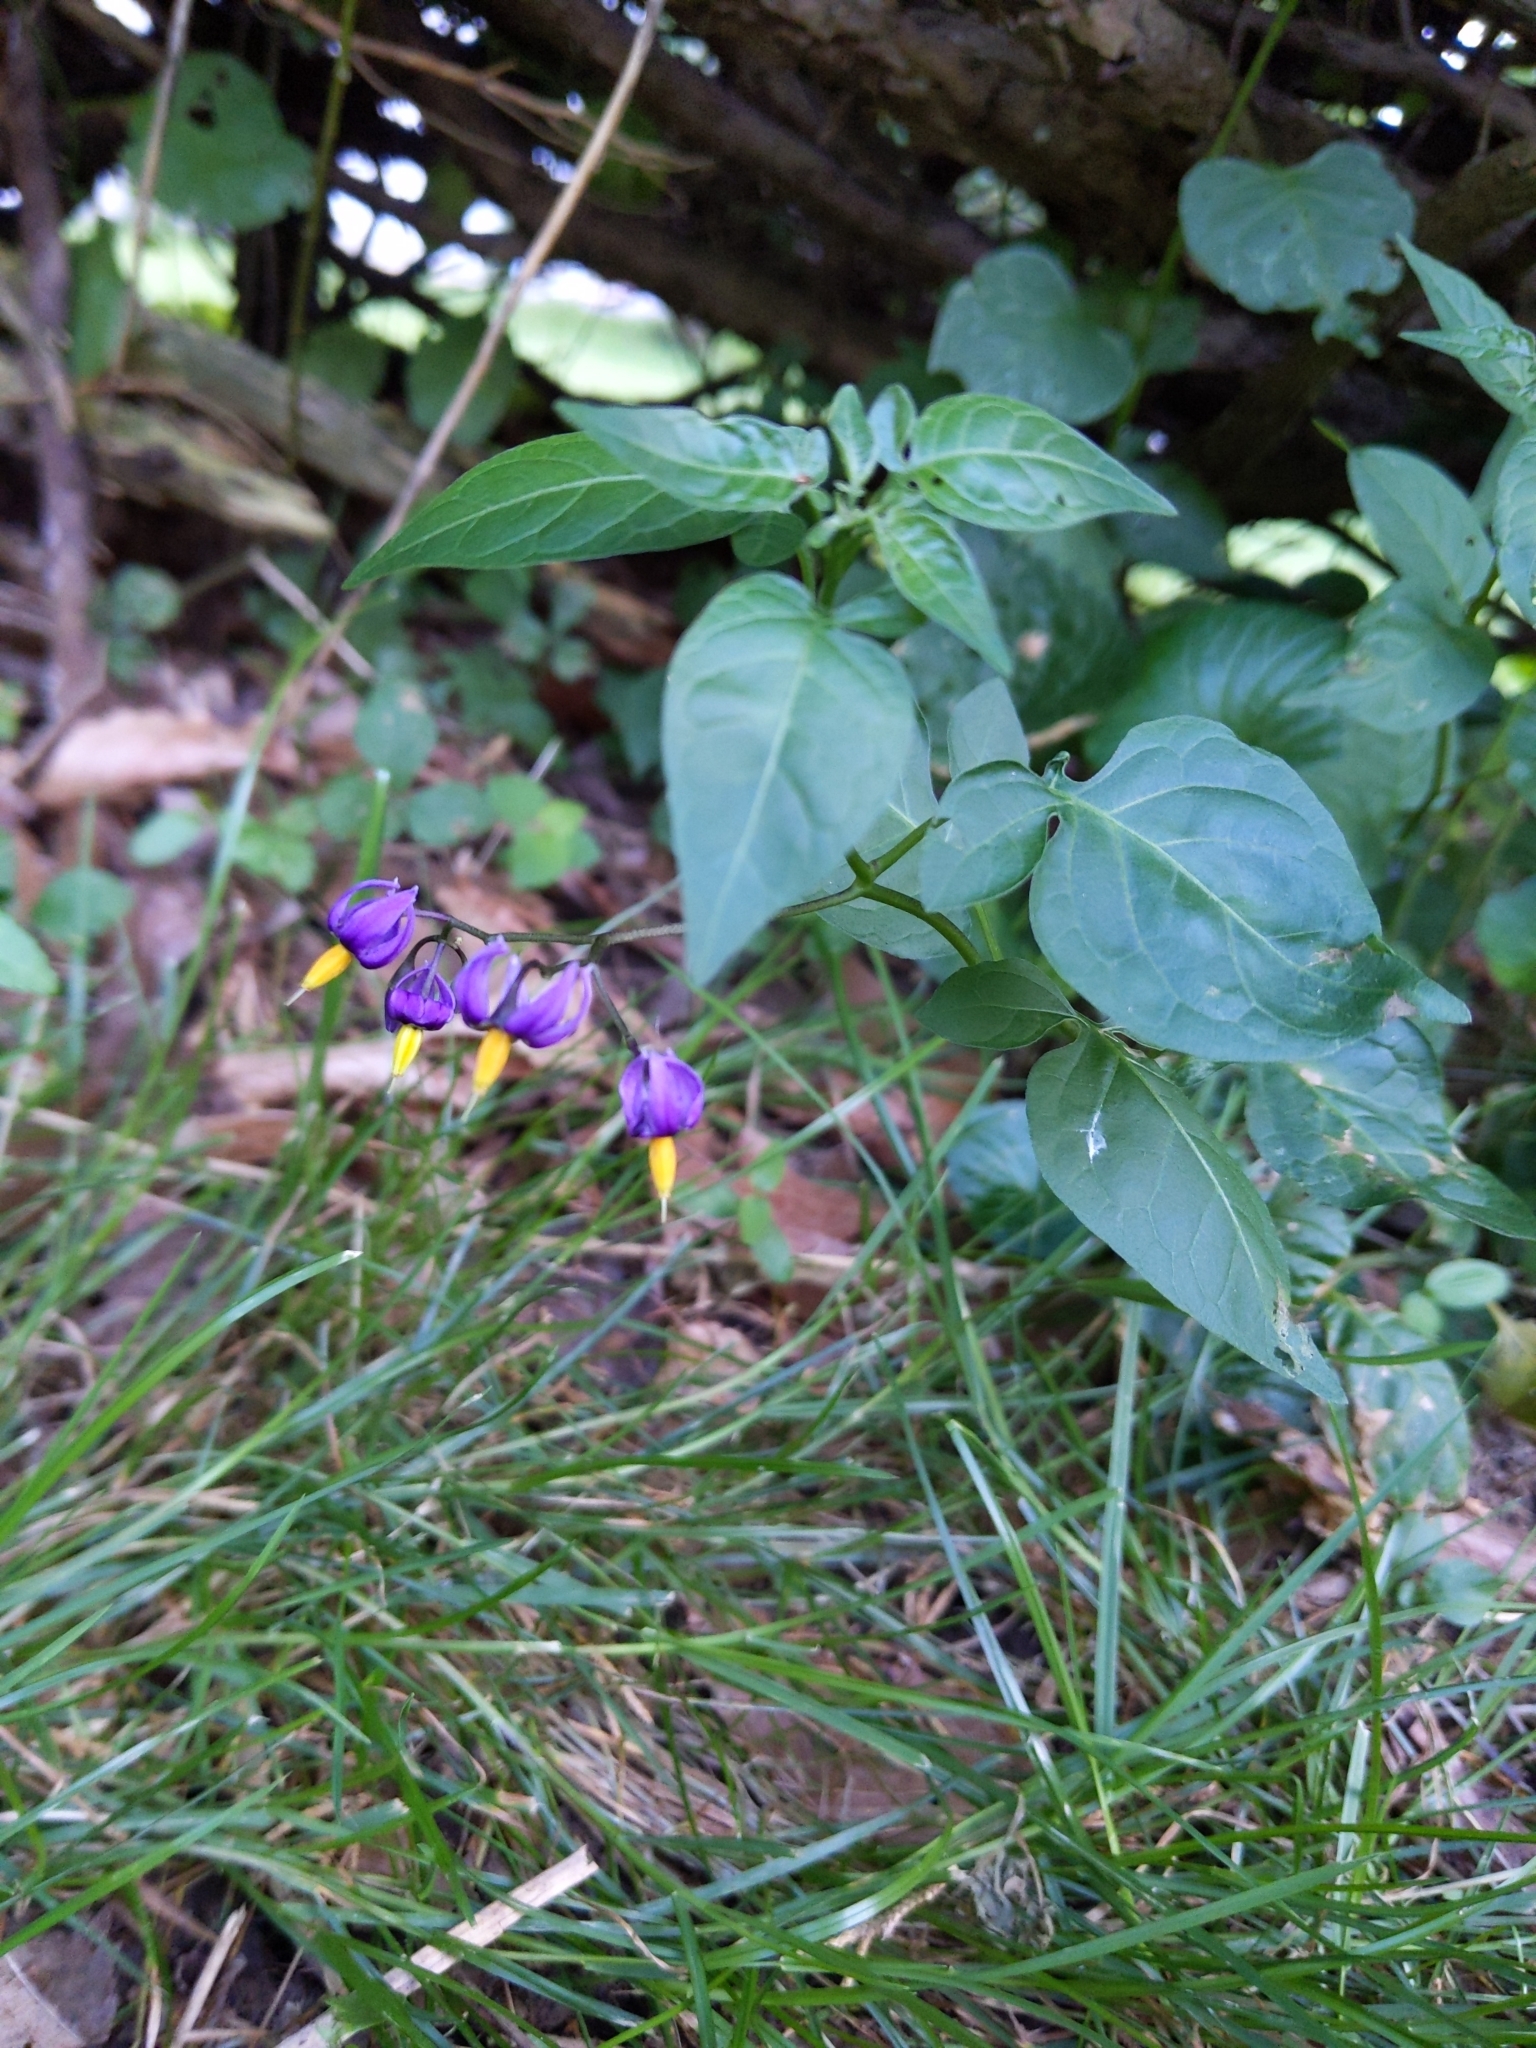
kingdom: Plantae
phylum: Tracheophyta
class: Magnoliopsida
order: Solanales
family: Solanaceae
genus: Solanum
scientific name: Solanum dulcamara
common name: Climbing nightshade
